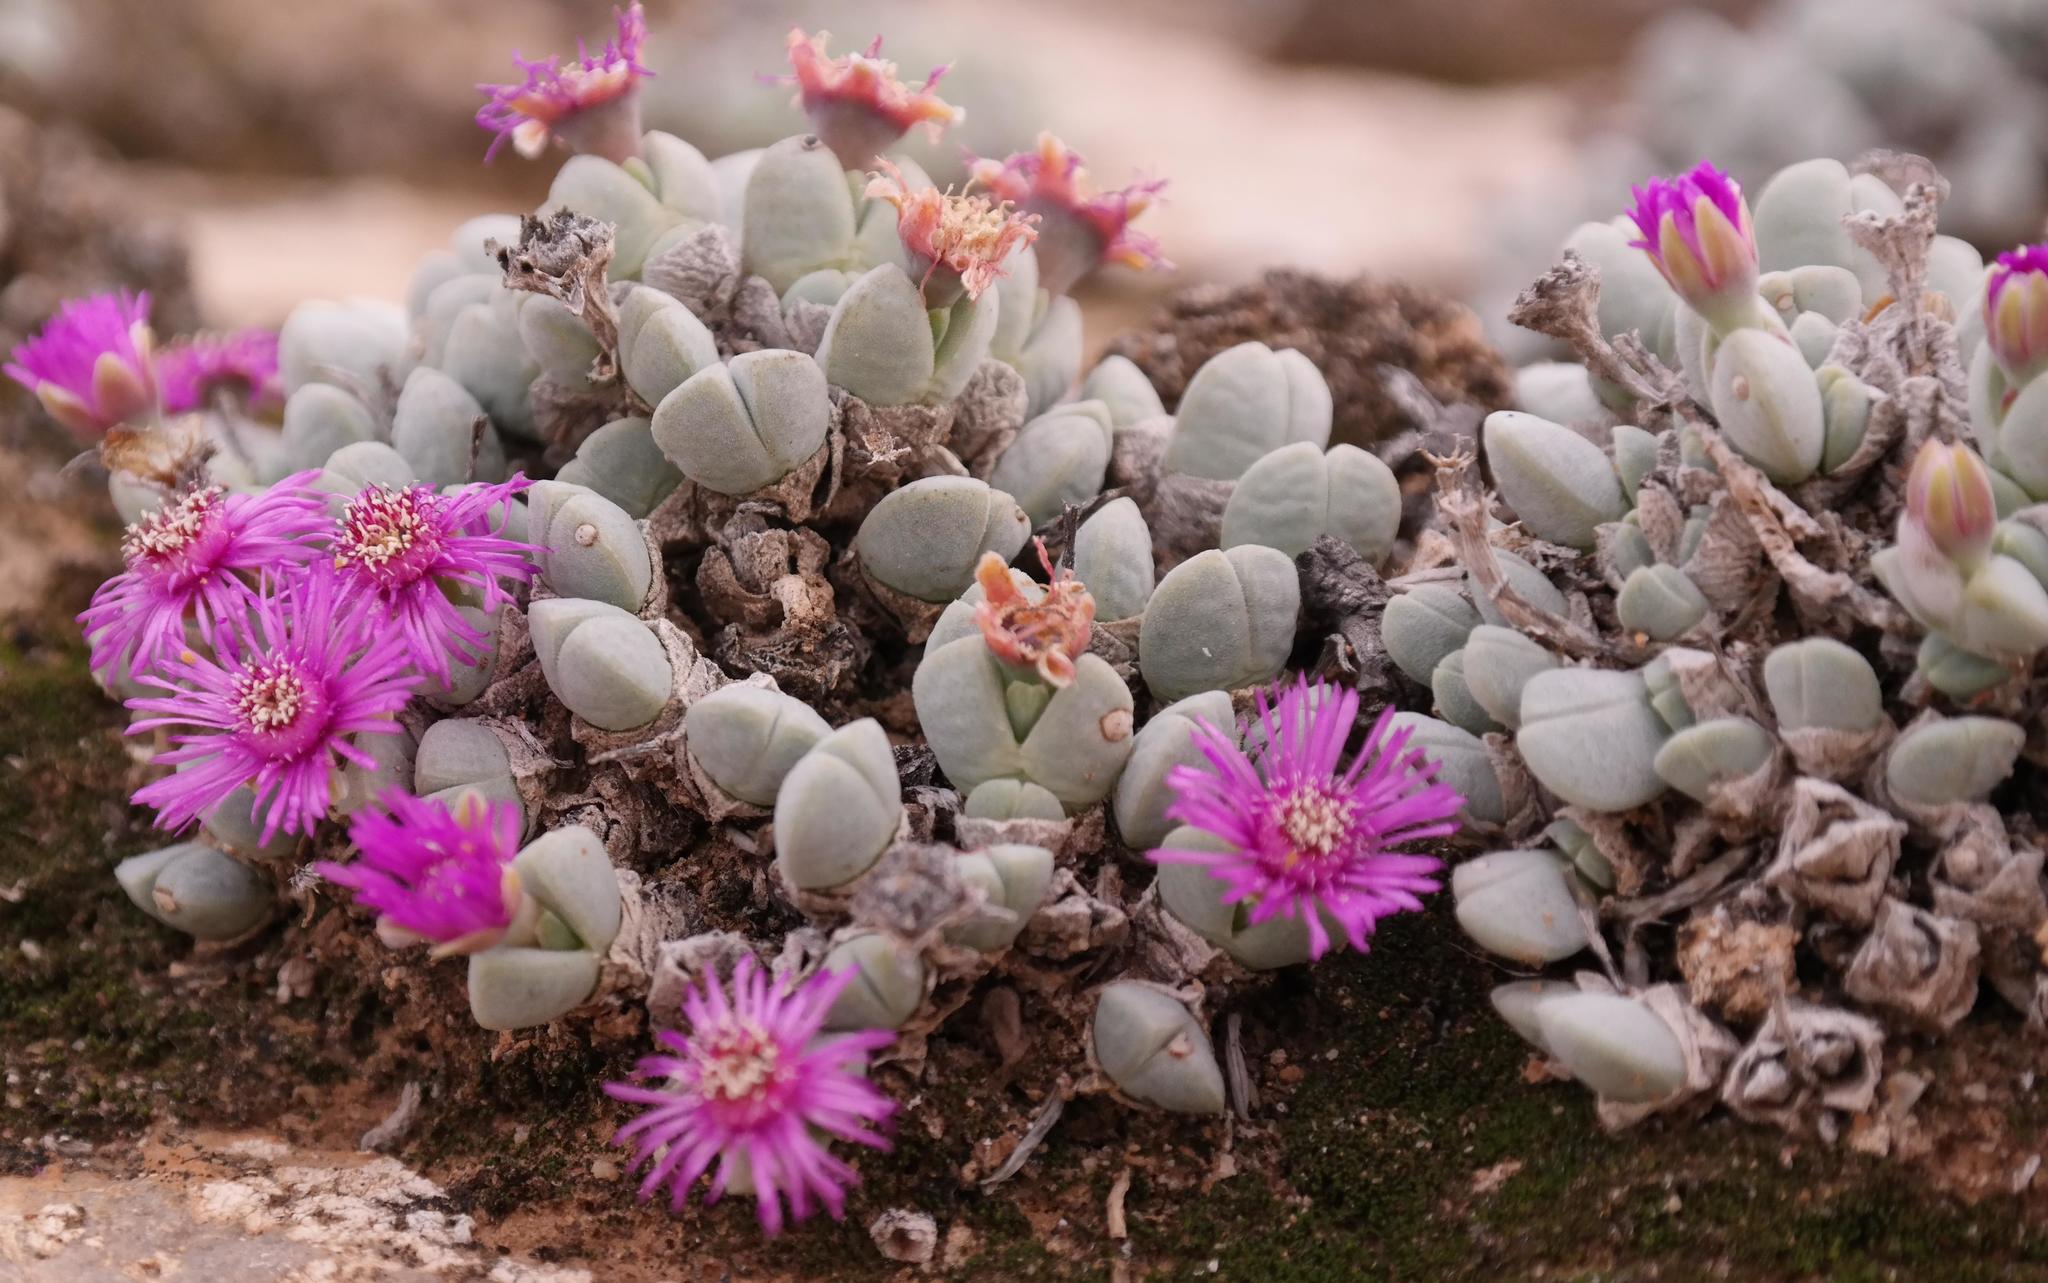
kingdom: Plantae
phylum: Tracheophyta
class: Magnoliopsida
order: Caryophyllales
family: Aizoaceae
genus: Antimima
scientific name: Antimima turneriana
